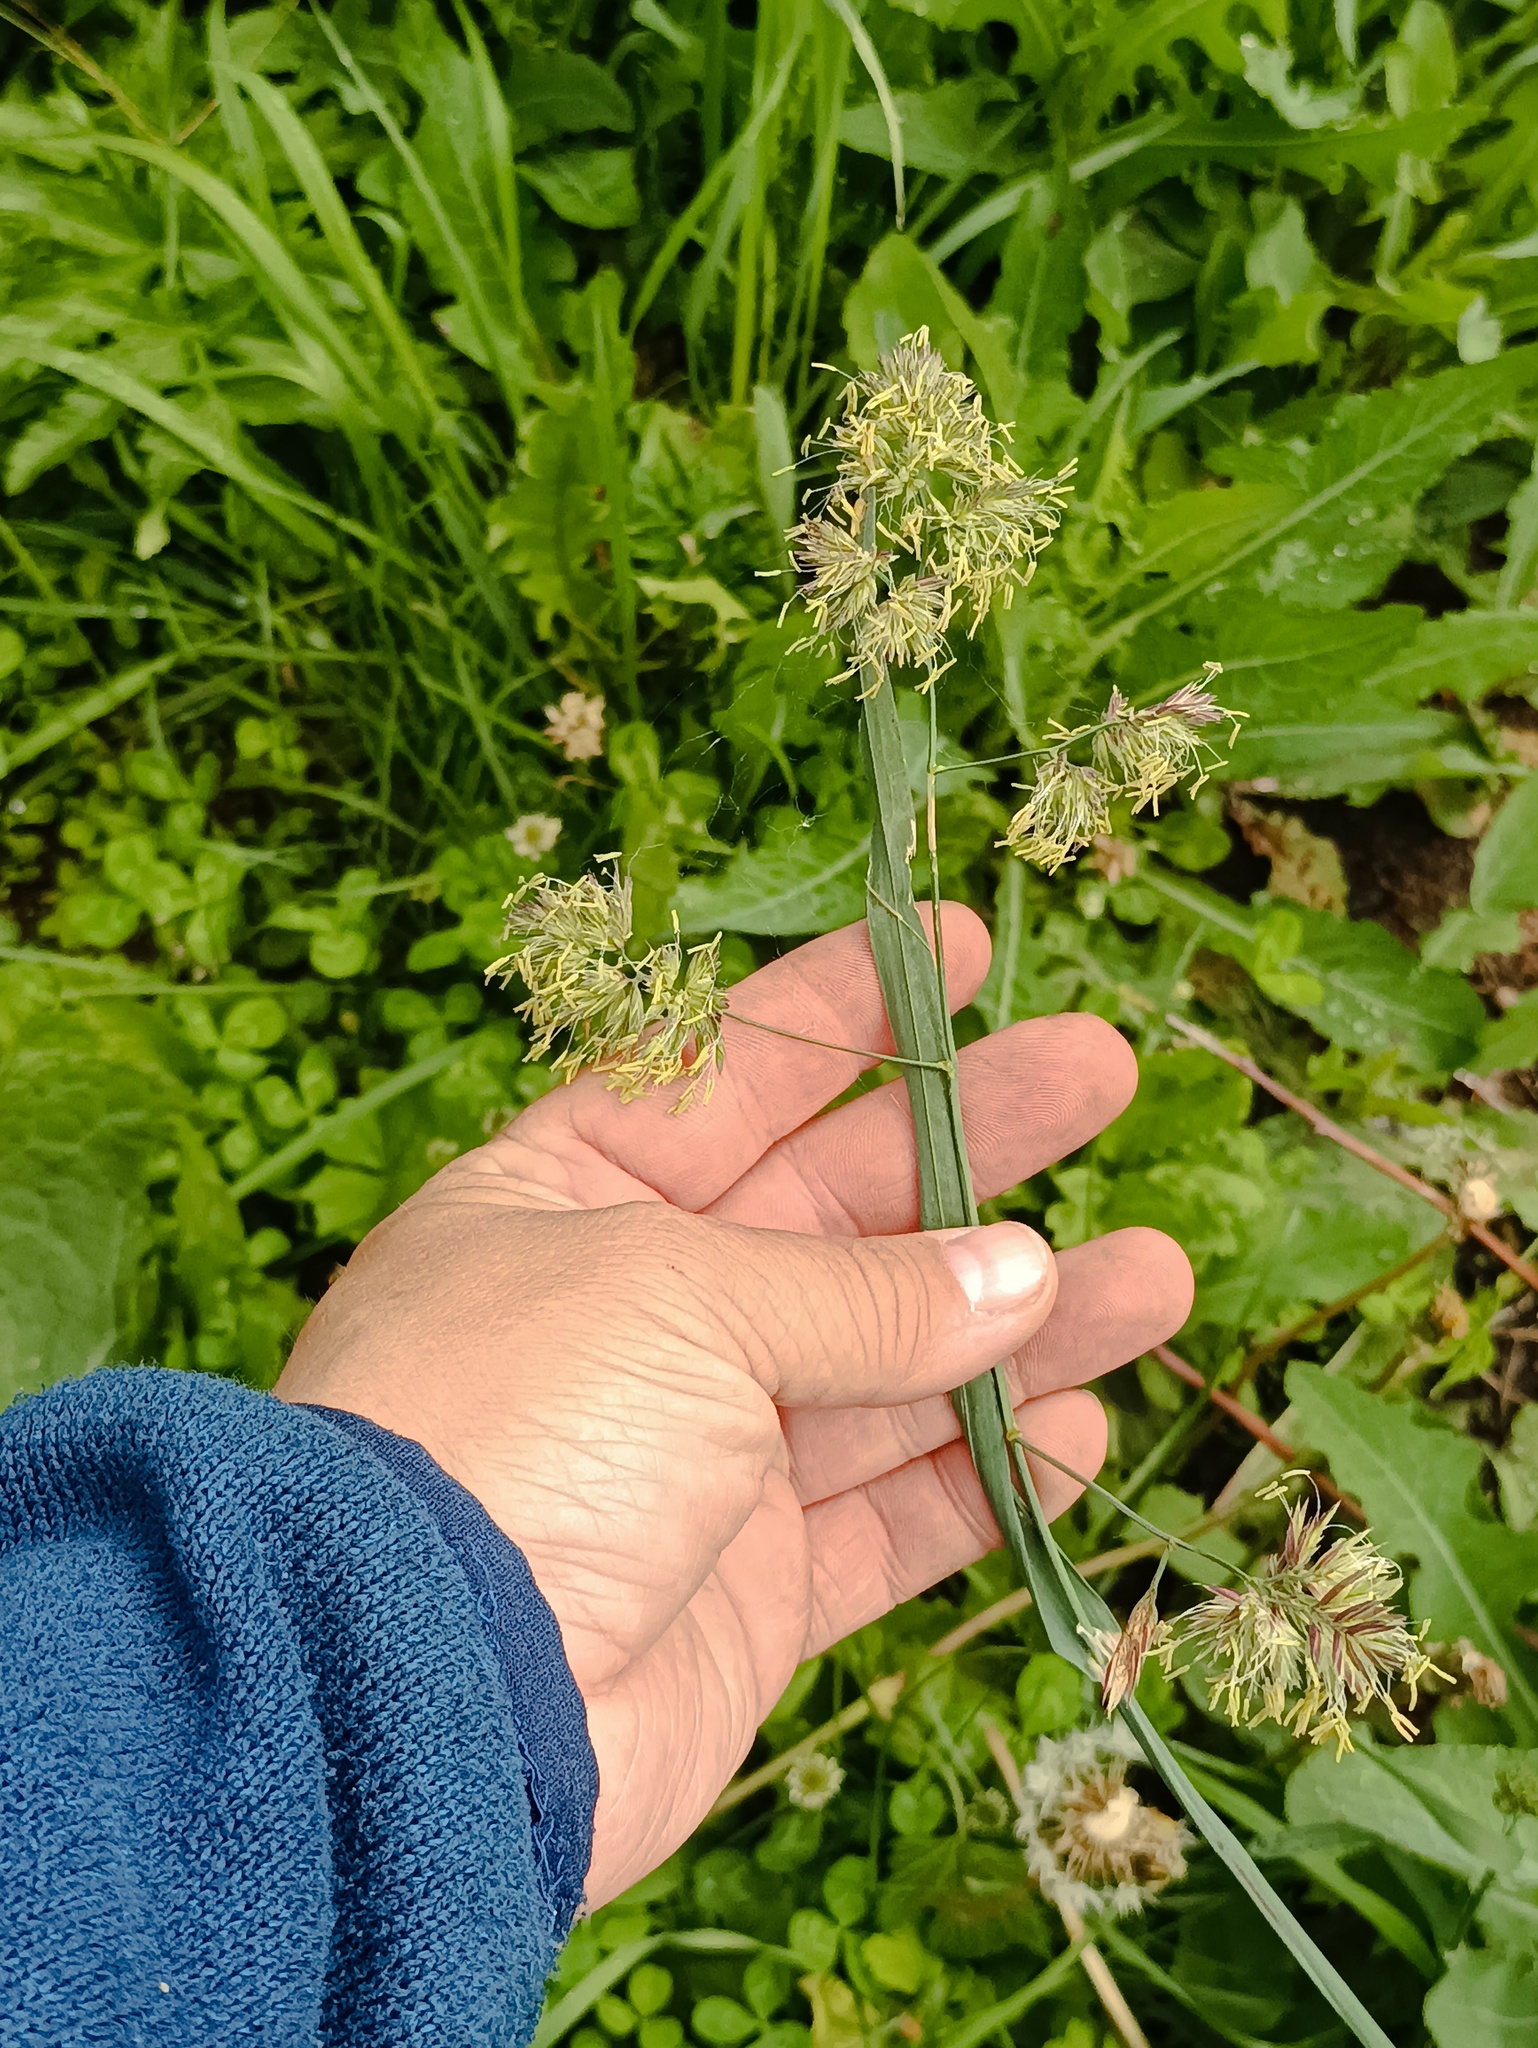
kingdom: Plantae
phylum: Tracheophyta
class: Liliopsida
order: Poales
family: Poaceae
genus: Dactylis
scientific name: Dactylis glomerata
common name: Orchardgrass
